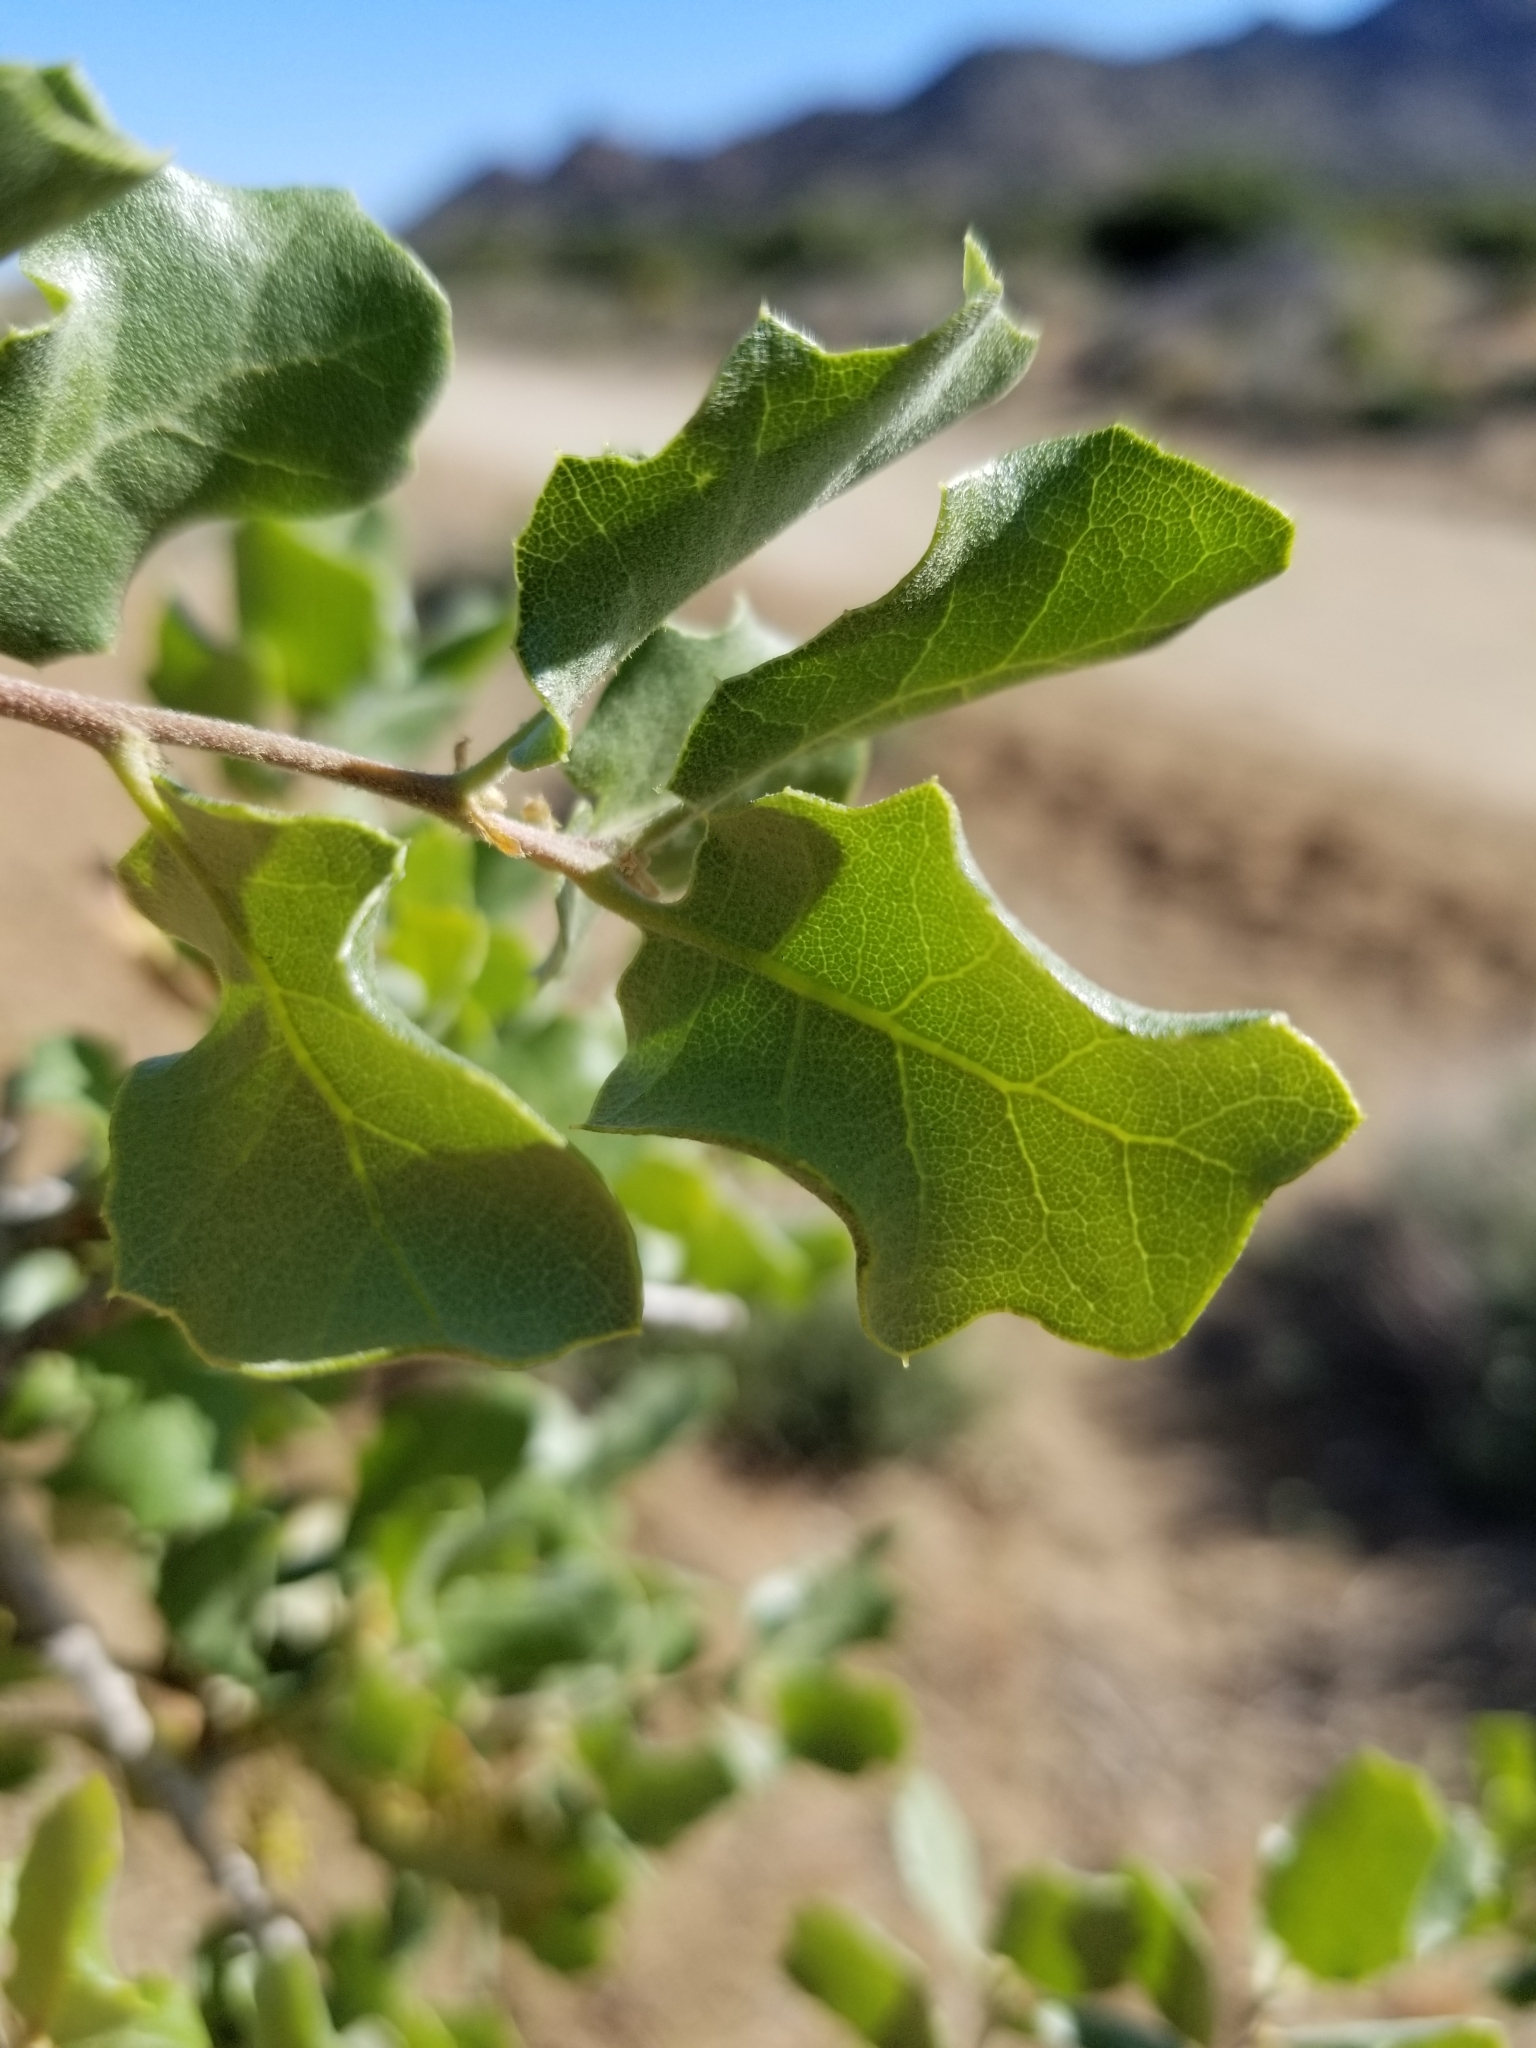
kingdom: Plantae
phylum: Tracheophyta
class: Magnoliopsida
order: Fagales
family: Fagaceae
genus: Quercus
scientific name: Quercus cornelius-mulleri
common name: Muller oak
